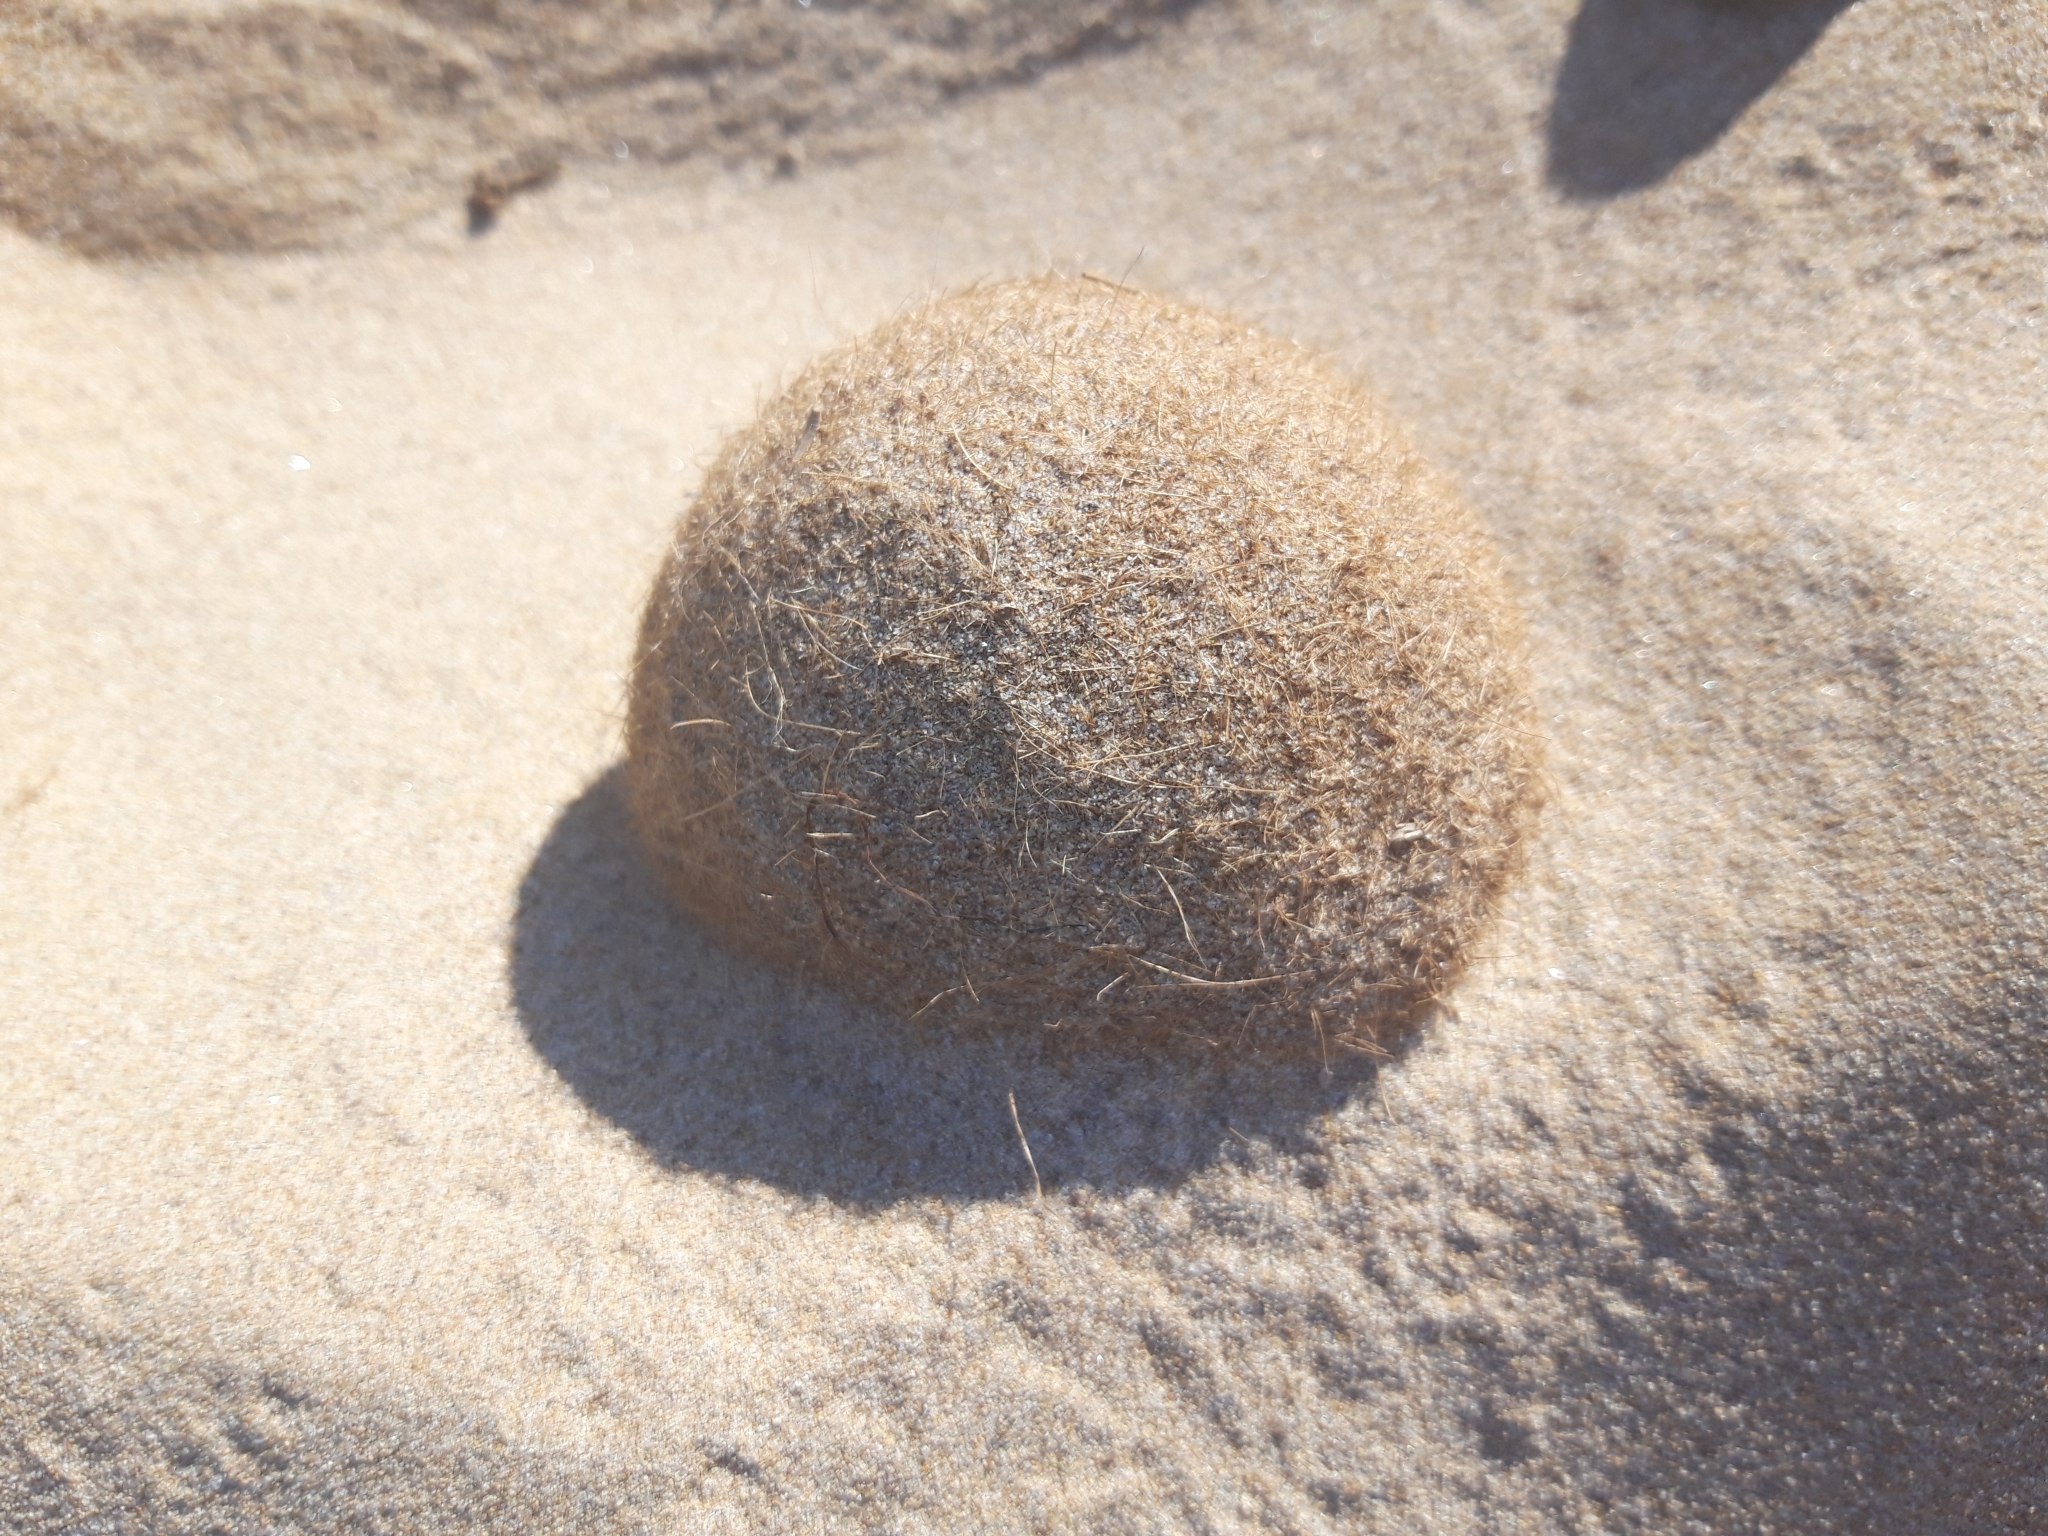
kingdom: Plantae
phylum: Tracheophyta
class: Liliopsida
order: Alismatales
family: Posidoniaceae
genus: Posidonia
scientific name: Posidonia oceanica
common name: Mediterranean tapeweed
